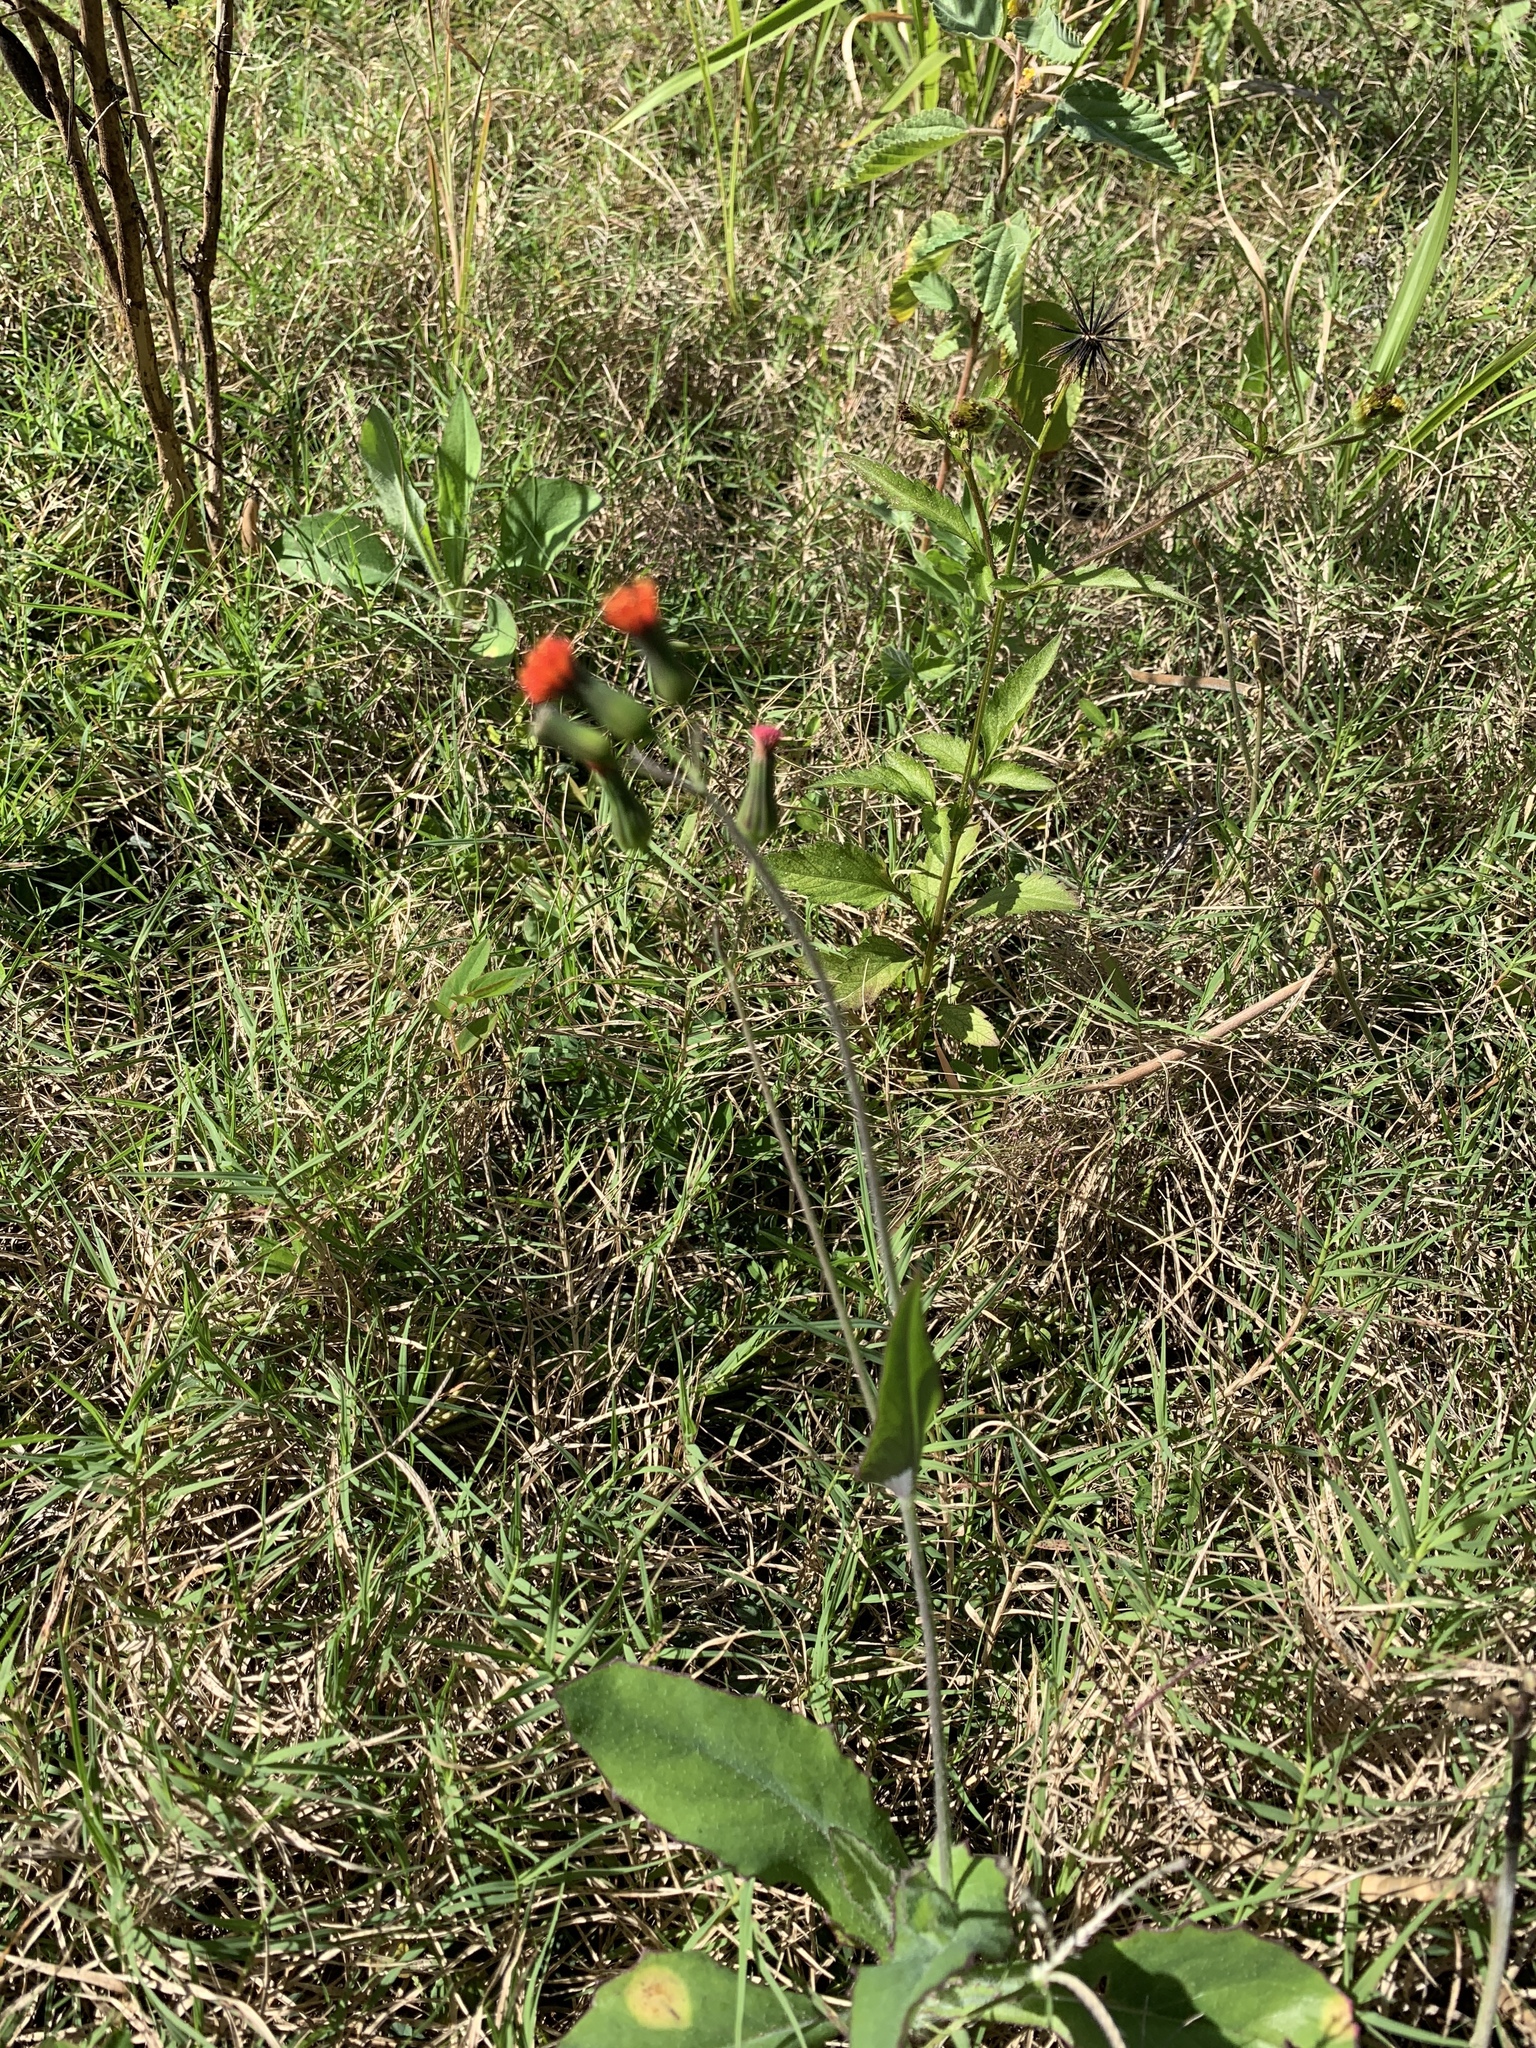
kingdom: Plantae
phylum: Tracheophyta
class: Magnoliopsida
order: Asterales
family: Asteraceae
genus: Emilia
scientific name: Emilia fosbergii
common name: Florida tasselflower
